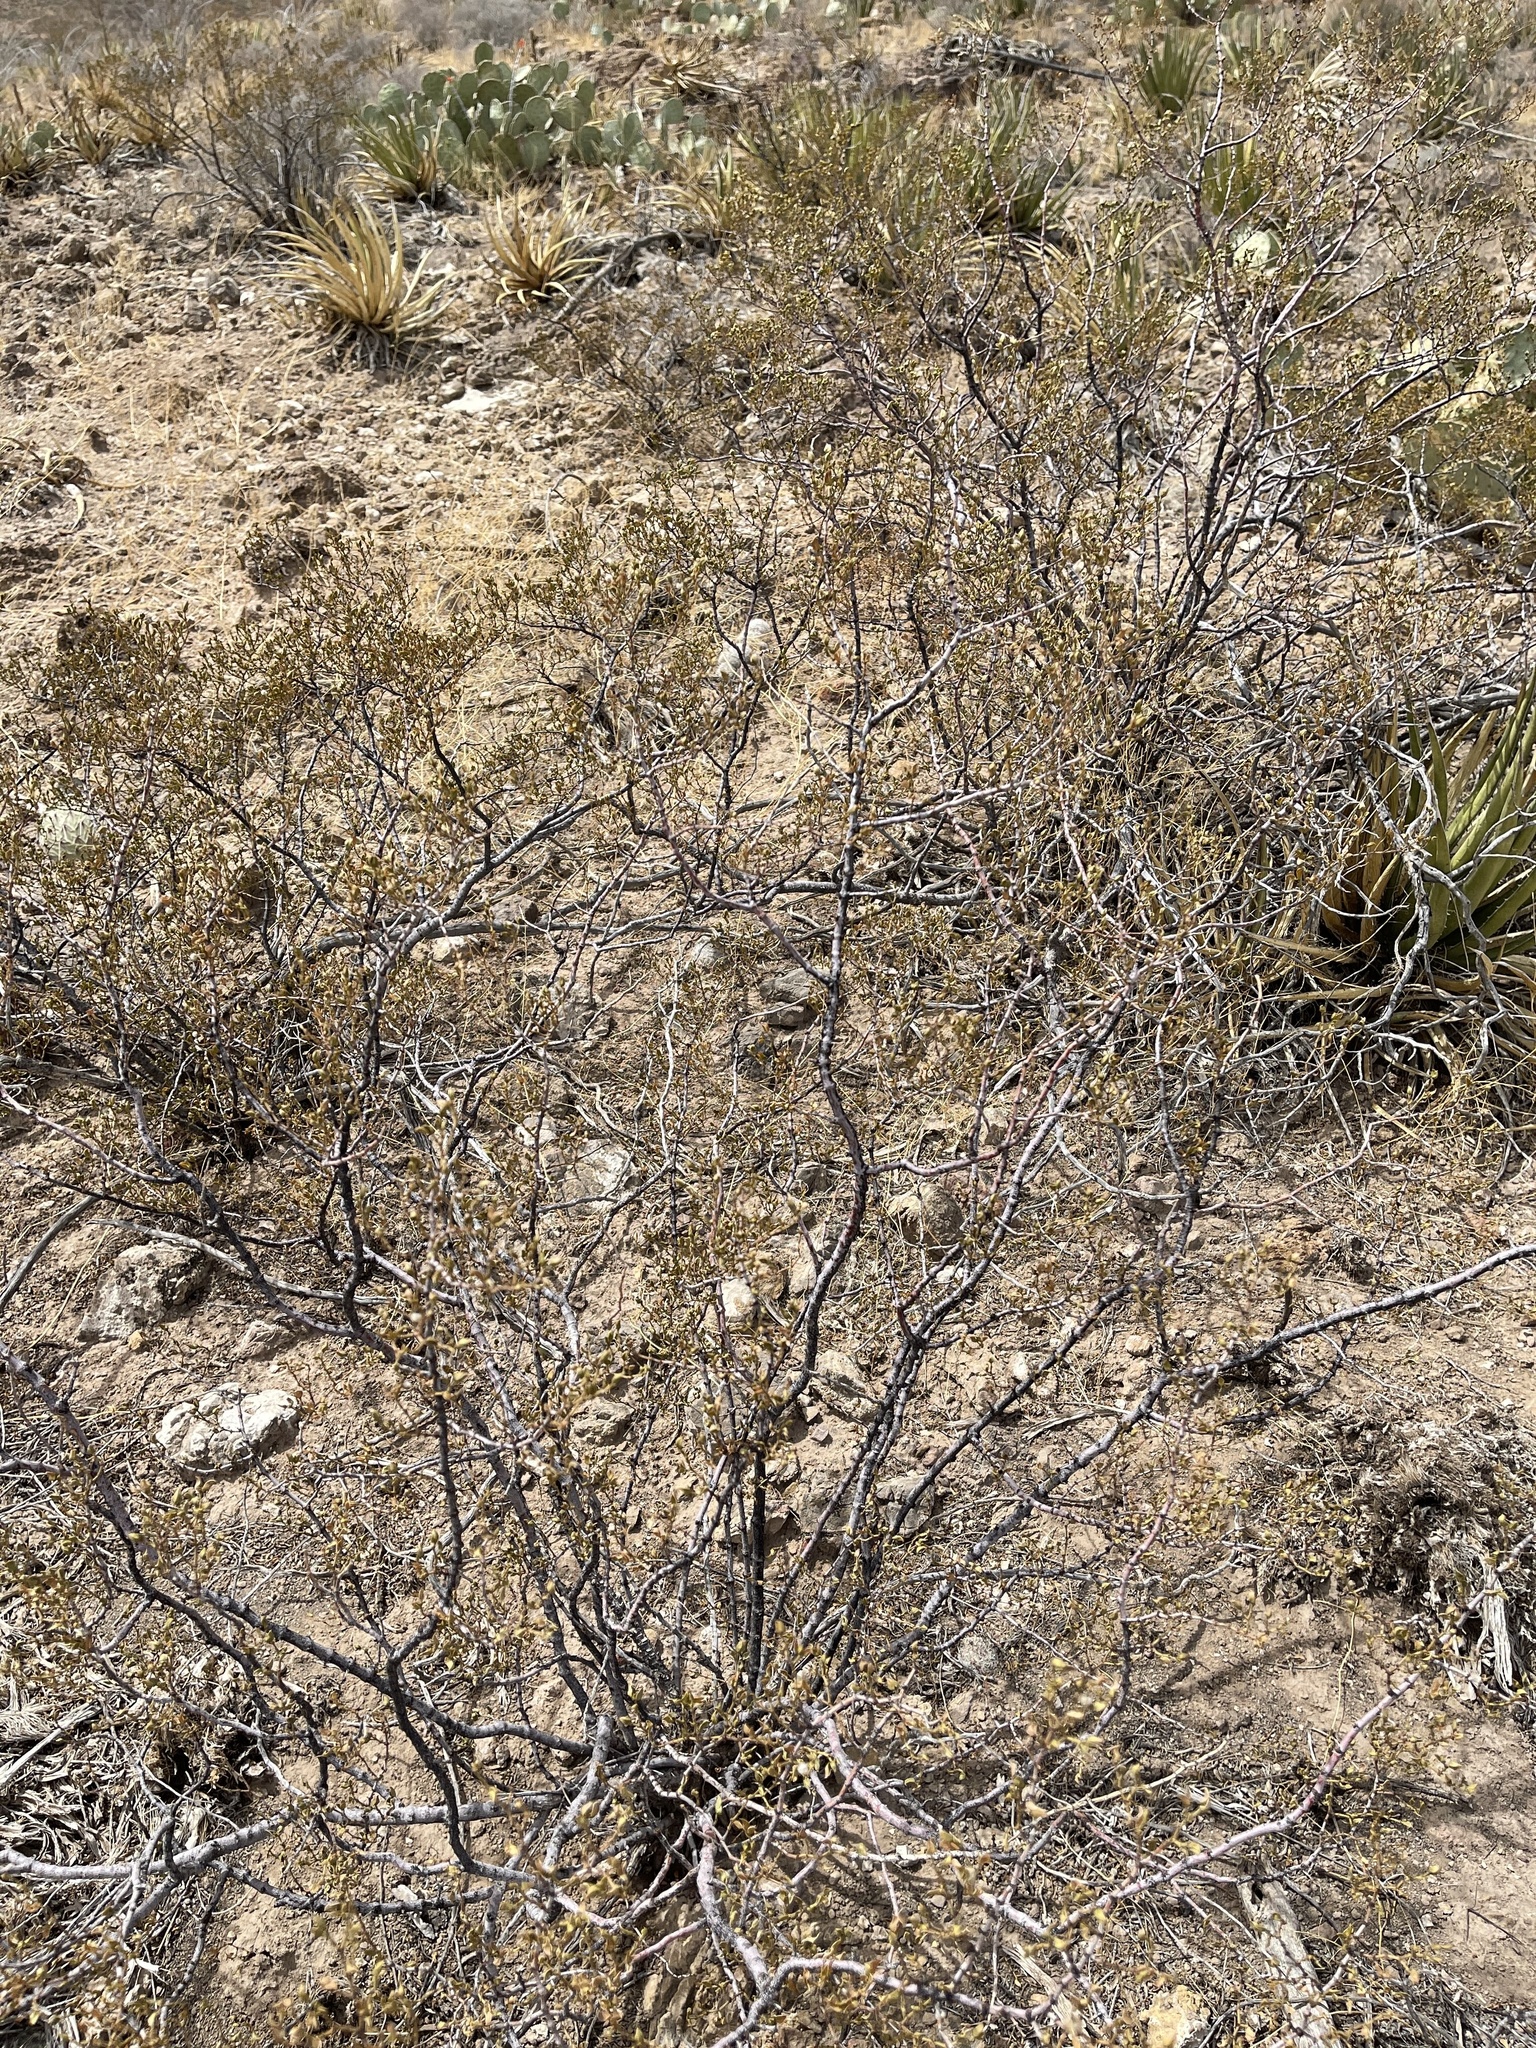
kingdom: Plantae
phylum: Tracheophyta
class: Magnoliopsida
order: Zygophyllales
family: Zygophyllaceae
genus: Larrea
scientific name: Larrea tridentata
